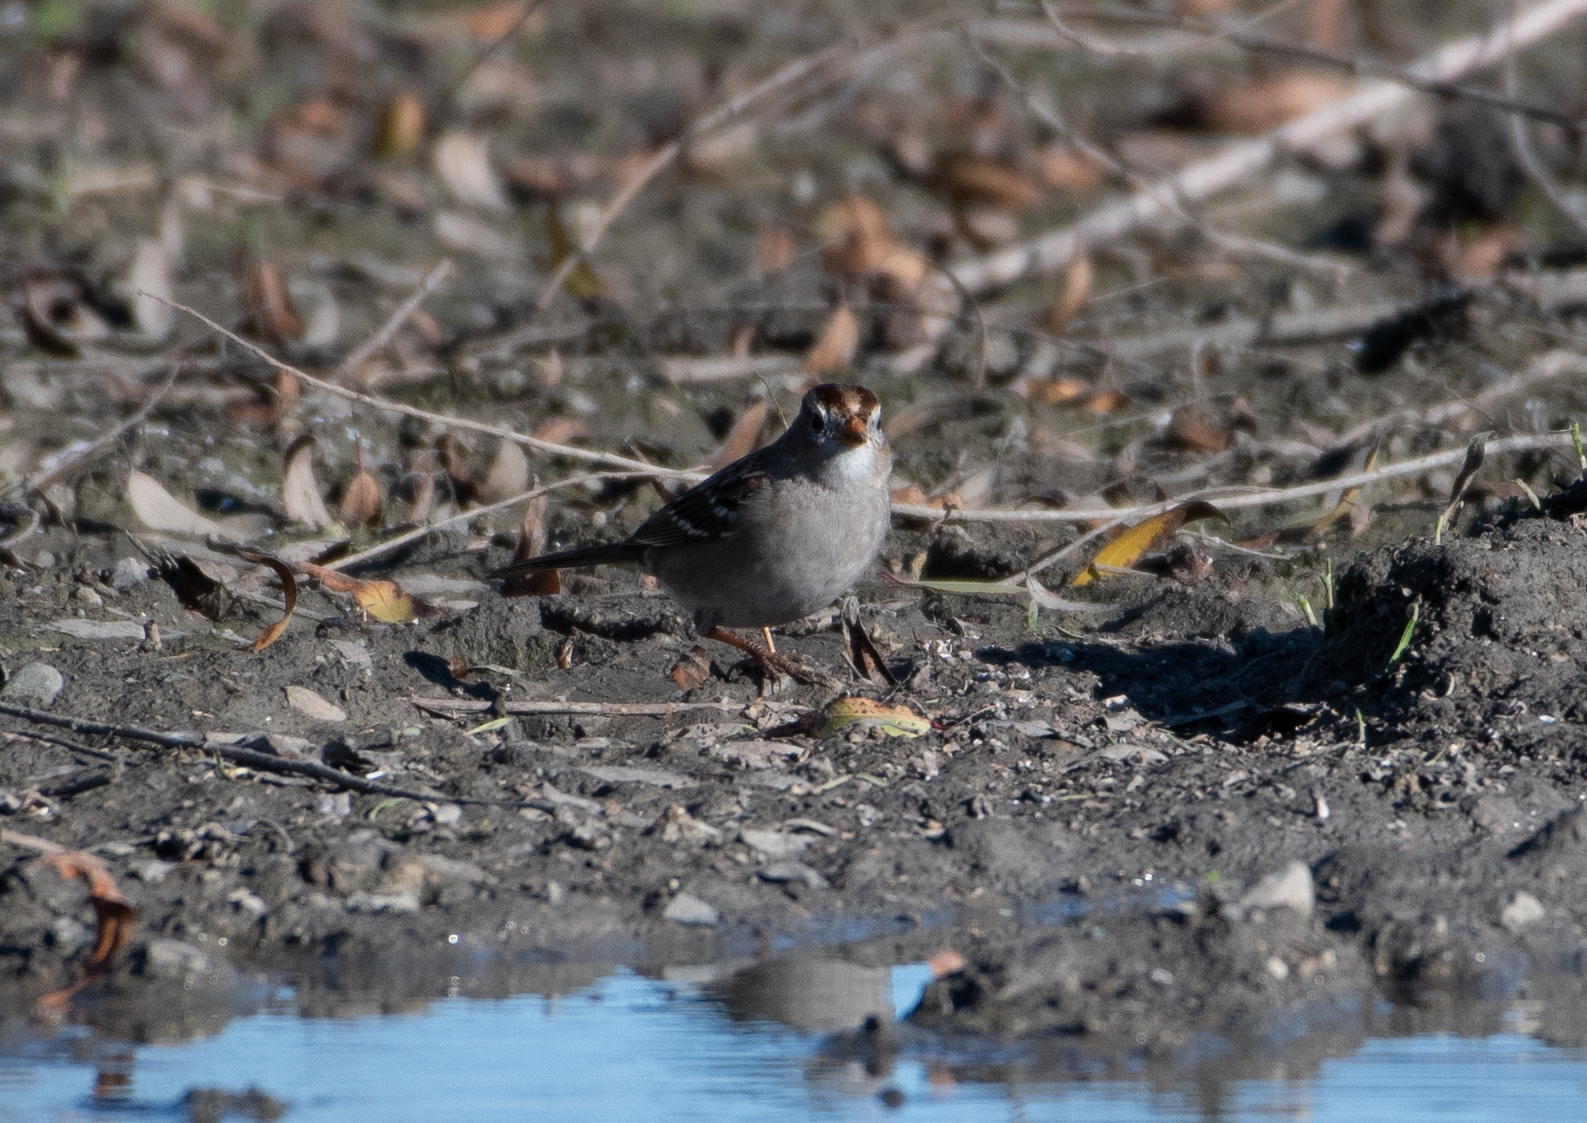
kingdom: Animalia
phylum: Chordata
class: Aves
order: Passeriformes
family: Passerellidae
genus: Zonotrichia
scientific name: Zonotrichia leucophrys
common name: White-crowned sparrow
